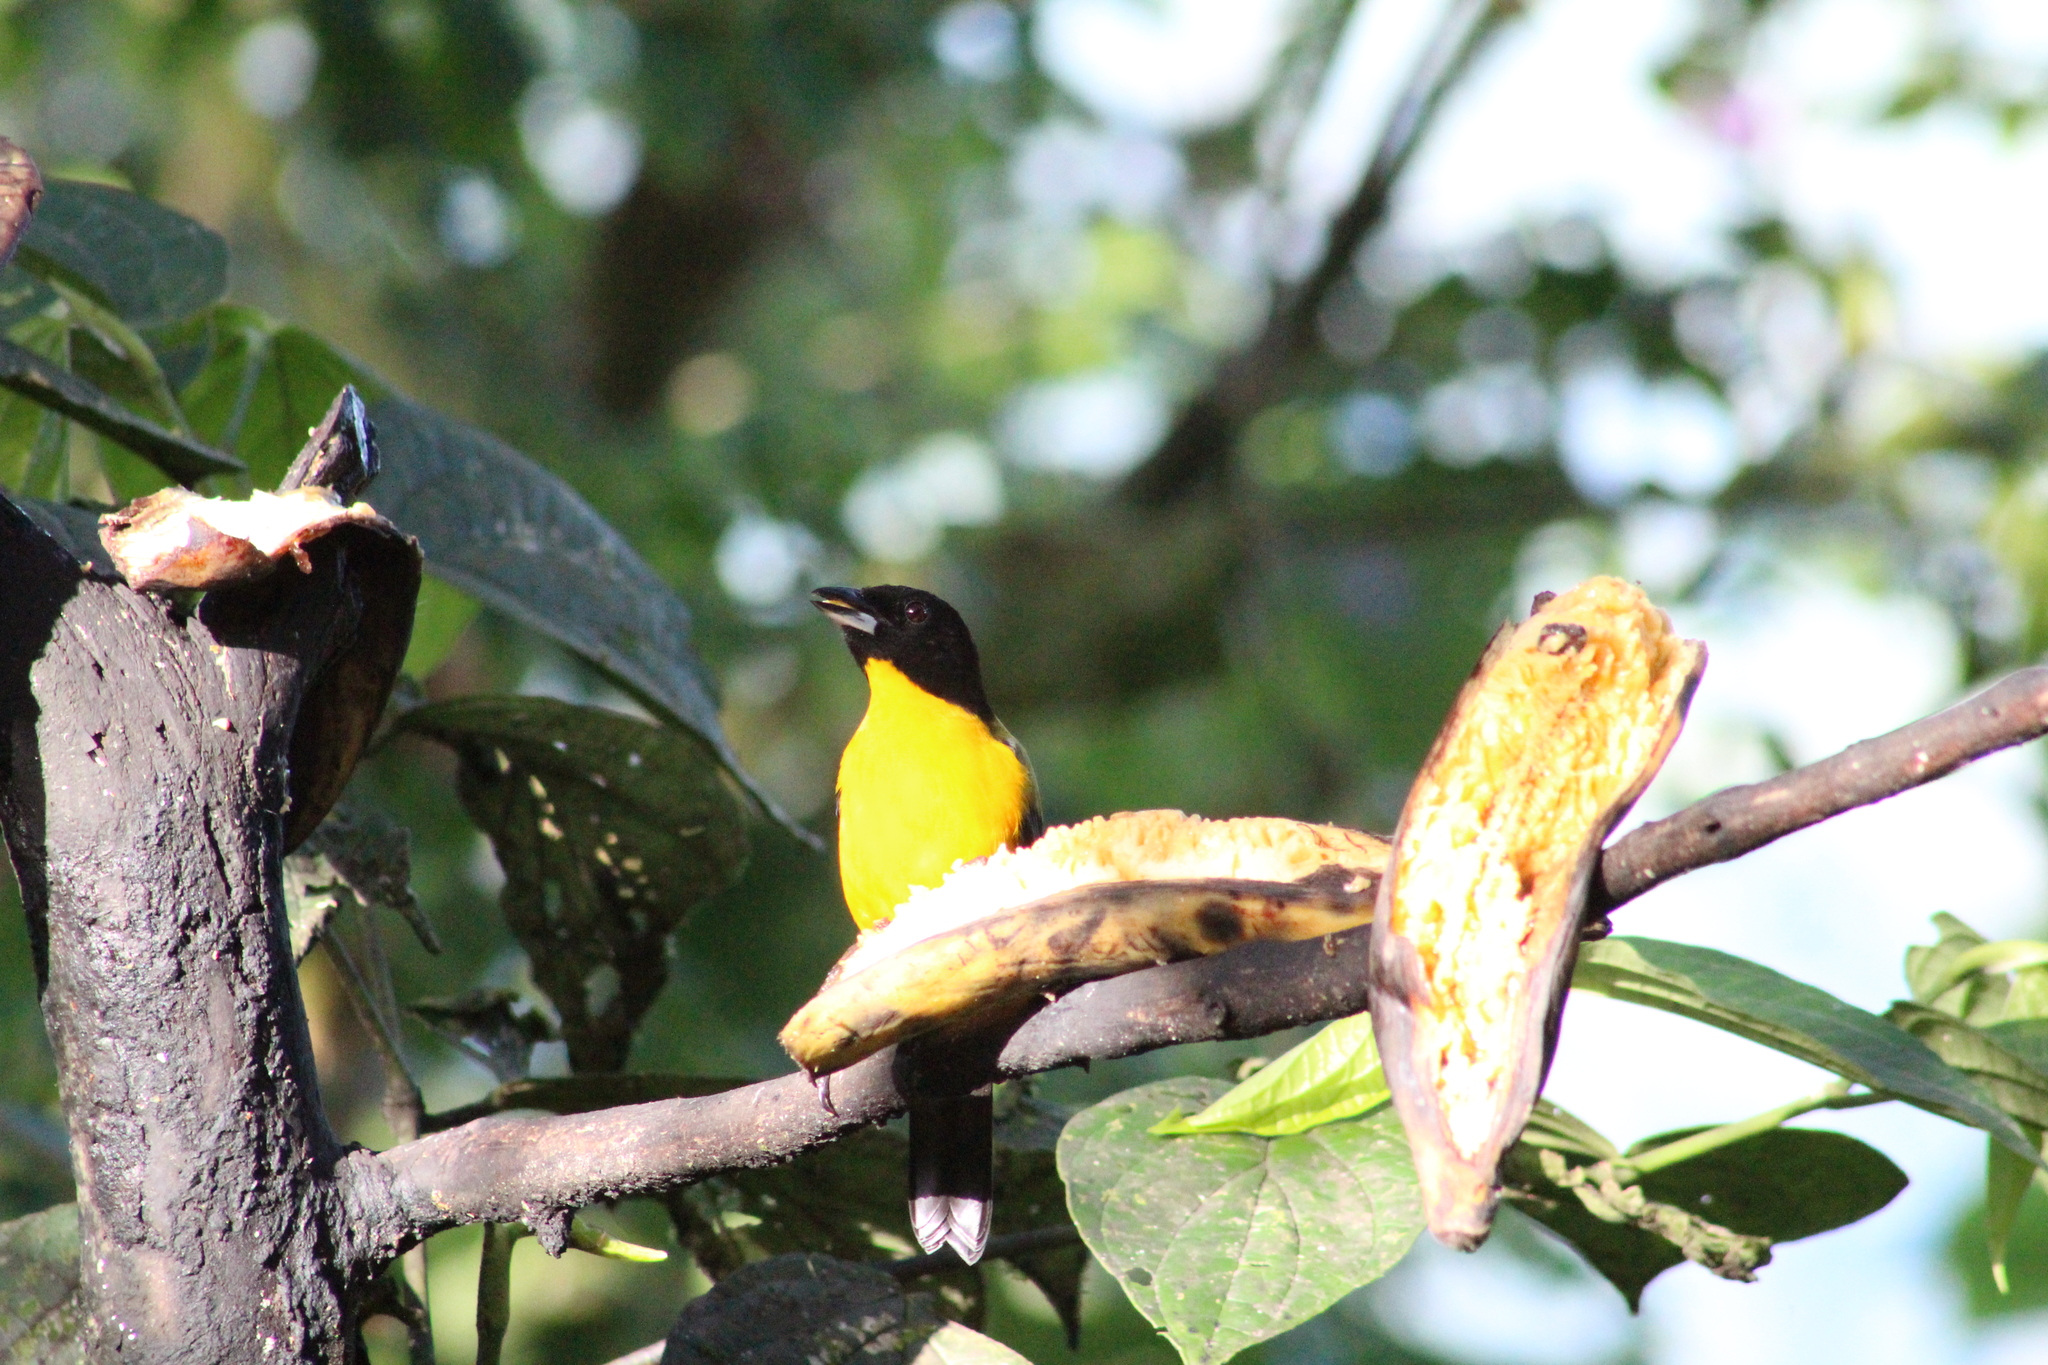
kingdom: Animalia
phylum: Chordata
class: Aves
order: Passeriformes
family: Thraupidae
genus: Anisognathus
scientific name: Anisognathus notabilis
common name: Black-chinned mountain tanager
